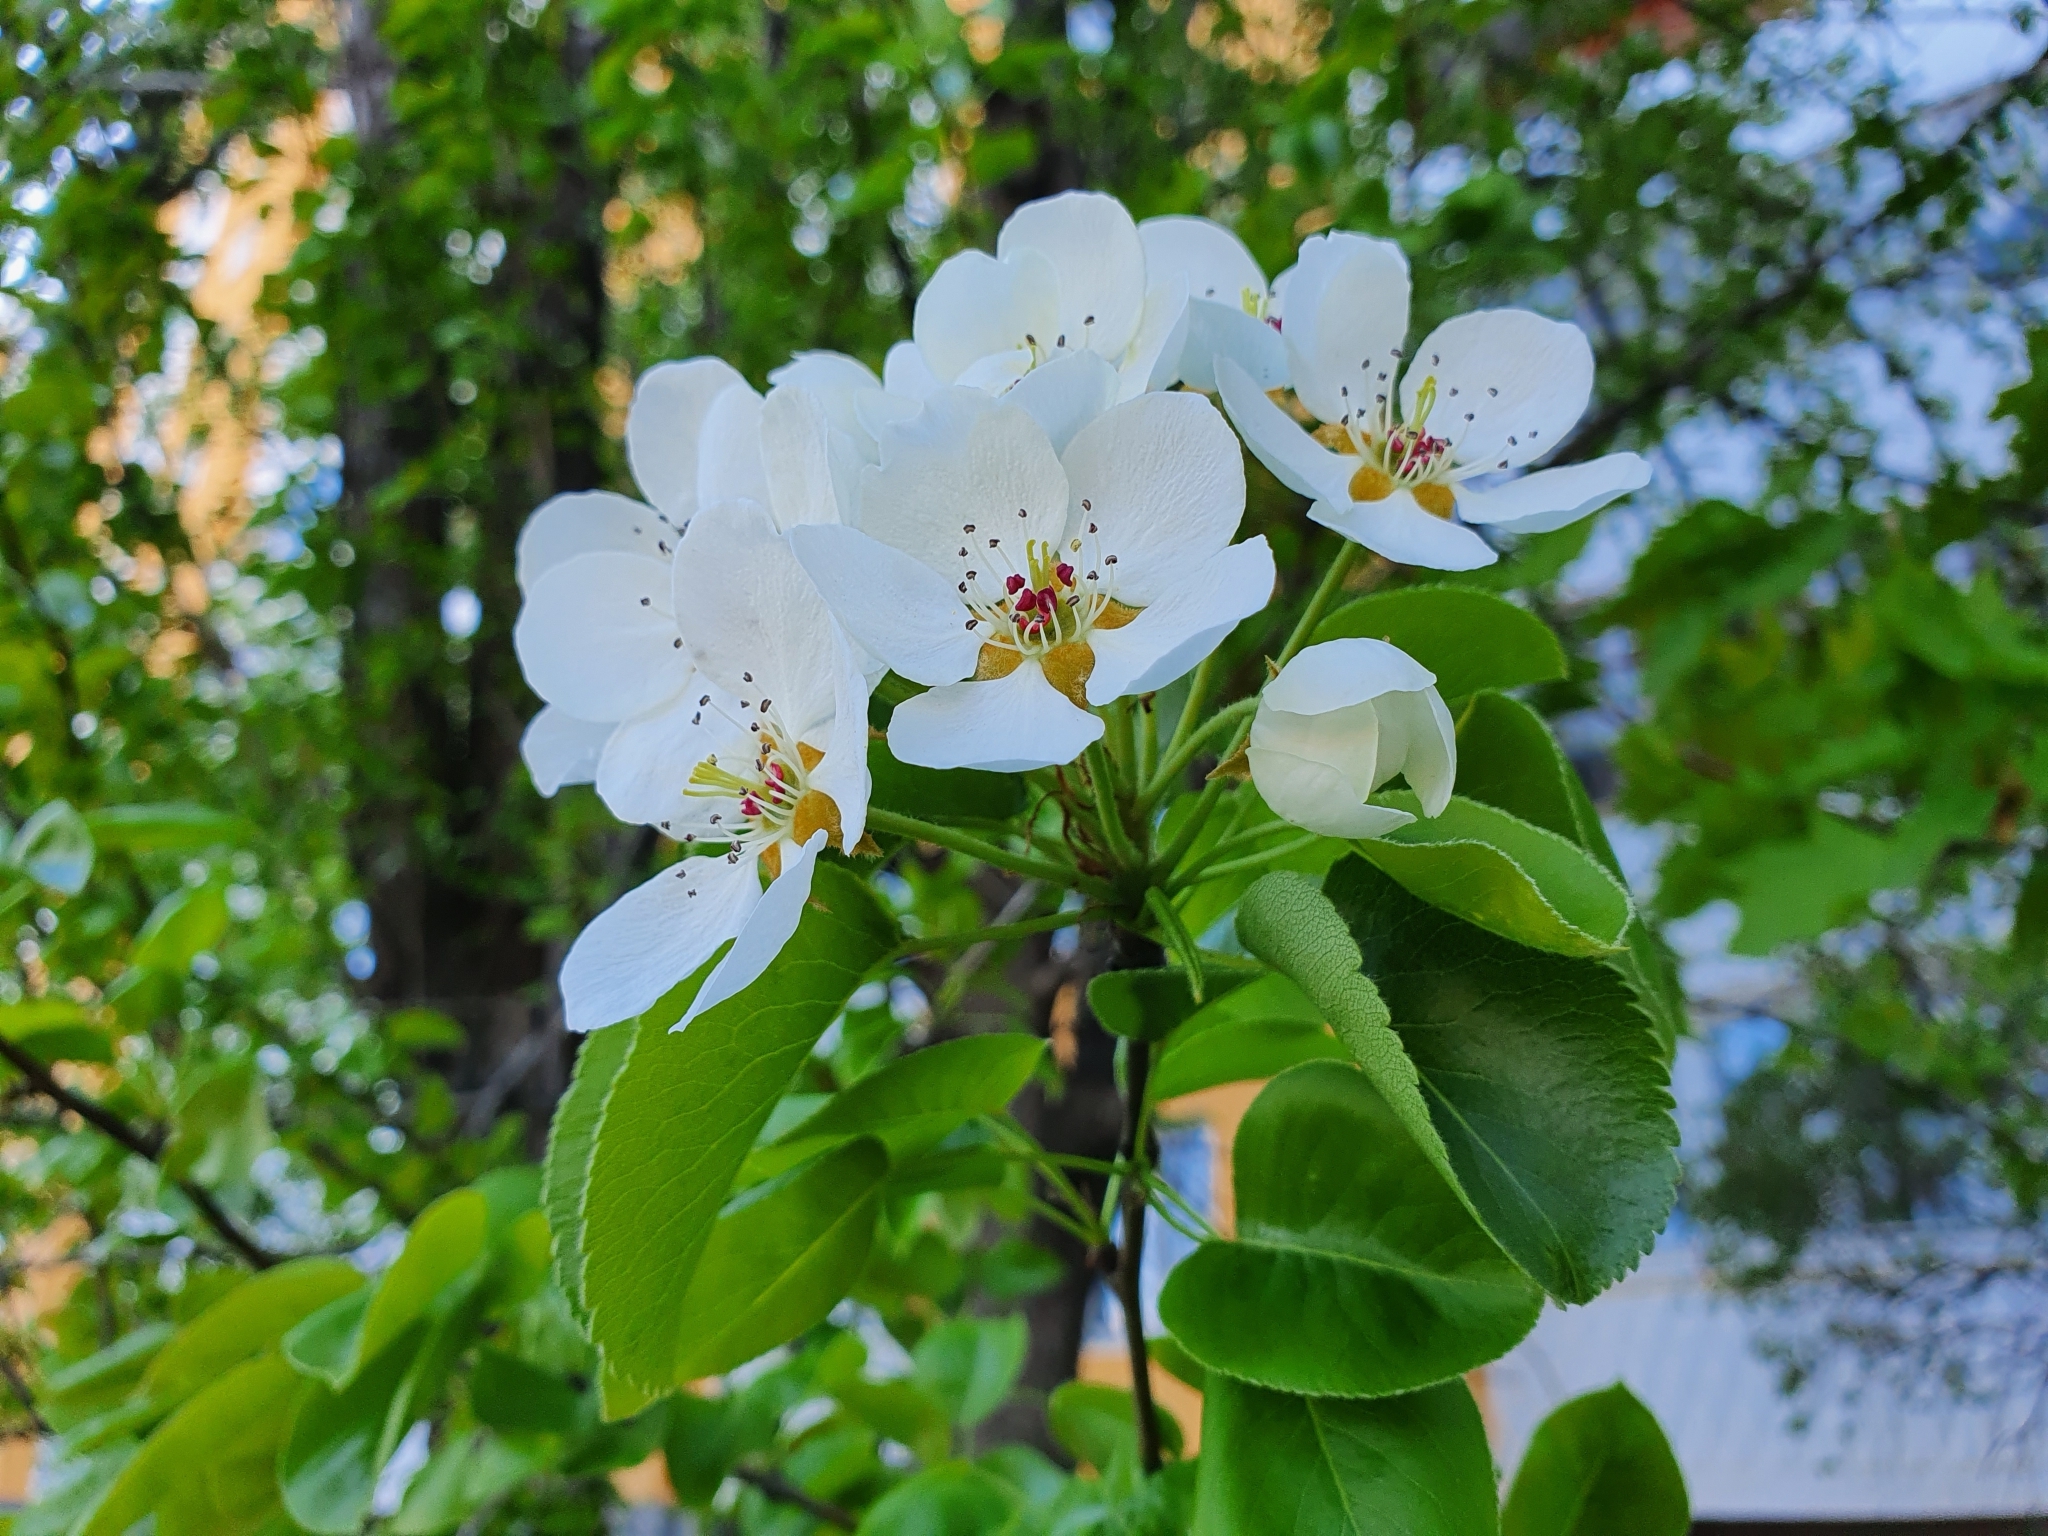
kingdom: Plantae
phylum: Tracheophyta
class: Magnoliopsida
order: Rosales
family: Rosaceae
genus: Pyrus
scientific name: Pyrus communis
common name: Pear
